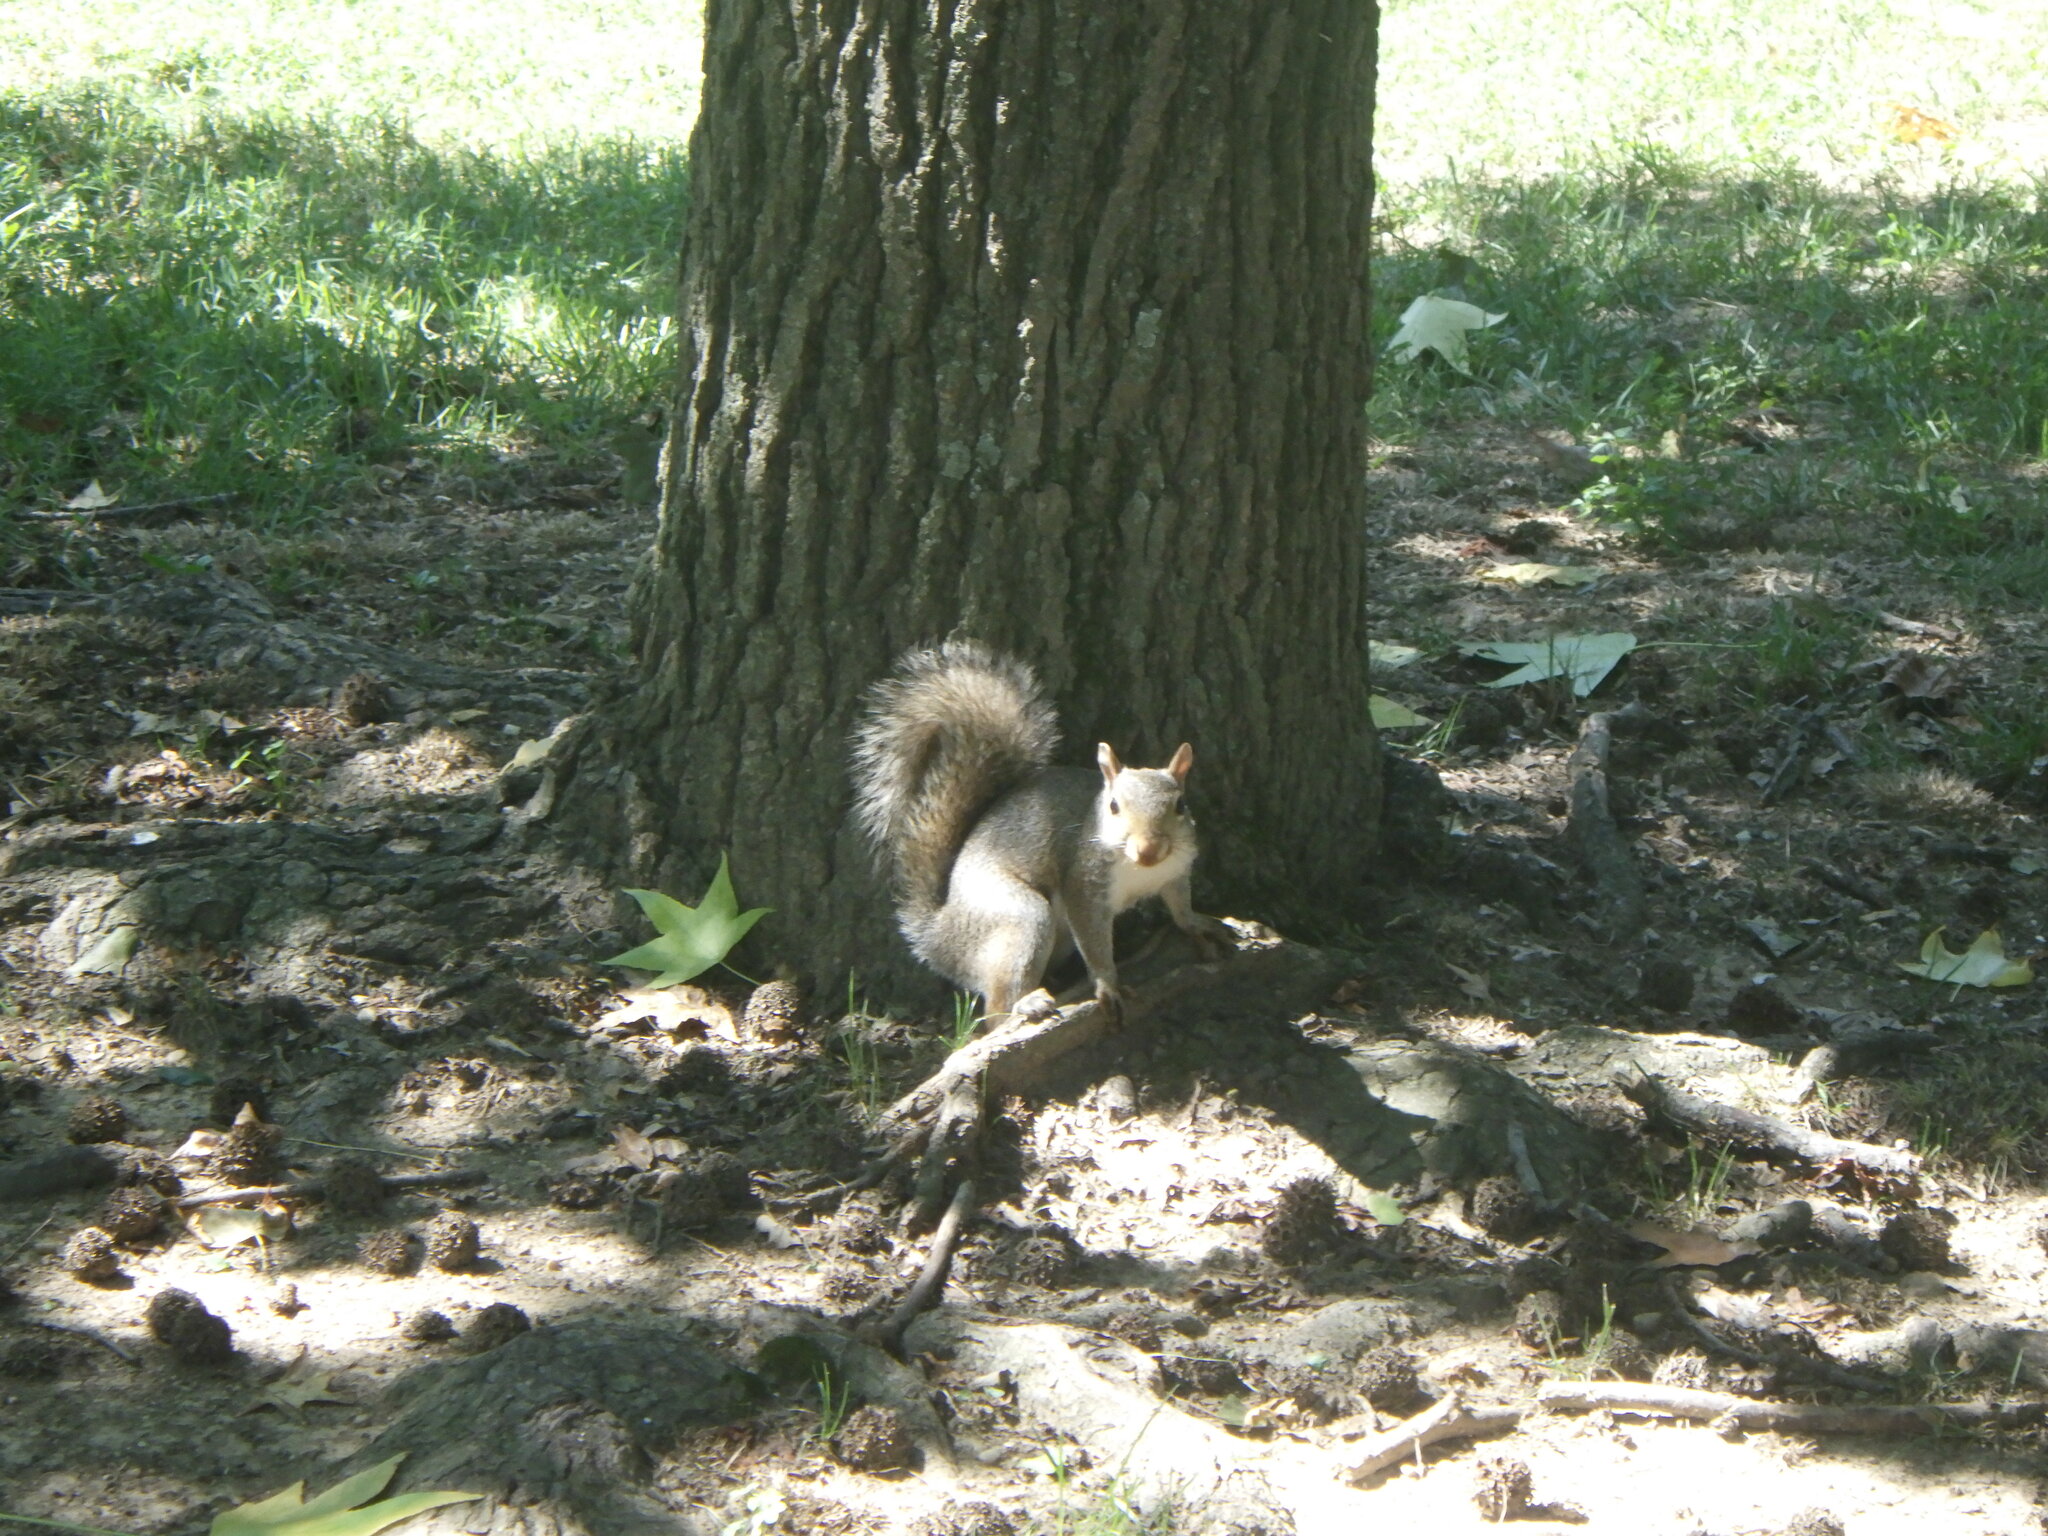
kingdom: Animalia
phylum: Chordata
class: Mammalia
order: Rodentia
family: Sciuridae
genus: Sciurus
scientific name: Sciurus carolinensis
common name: Eastern gray squirrel
